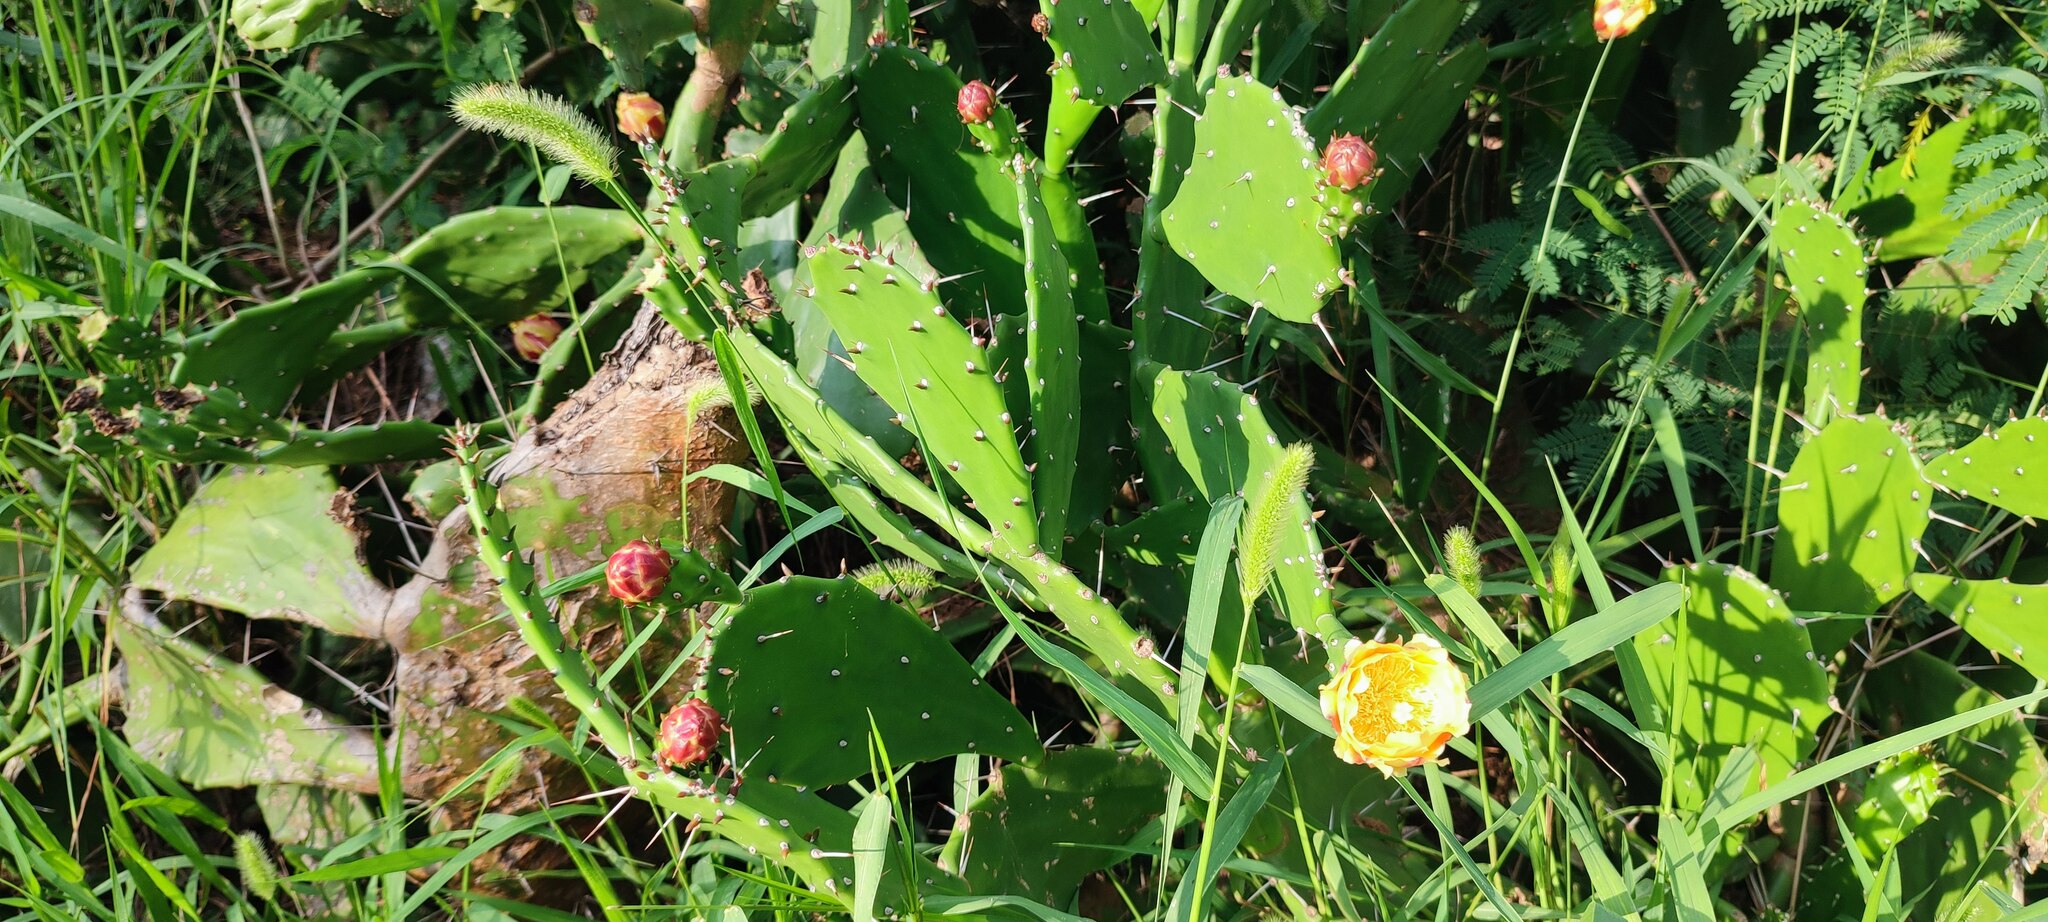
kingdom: Plantae
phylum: Tracheophyta
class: Magnoliopsida
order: Caryophyllales
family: Cactaceae
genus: Opuntia
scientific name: Opuntia monacantha
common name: Common pricklypear
